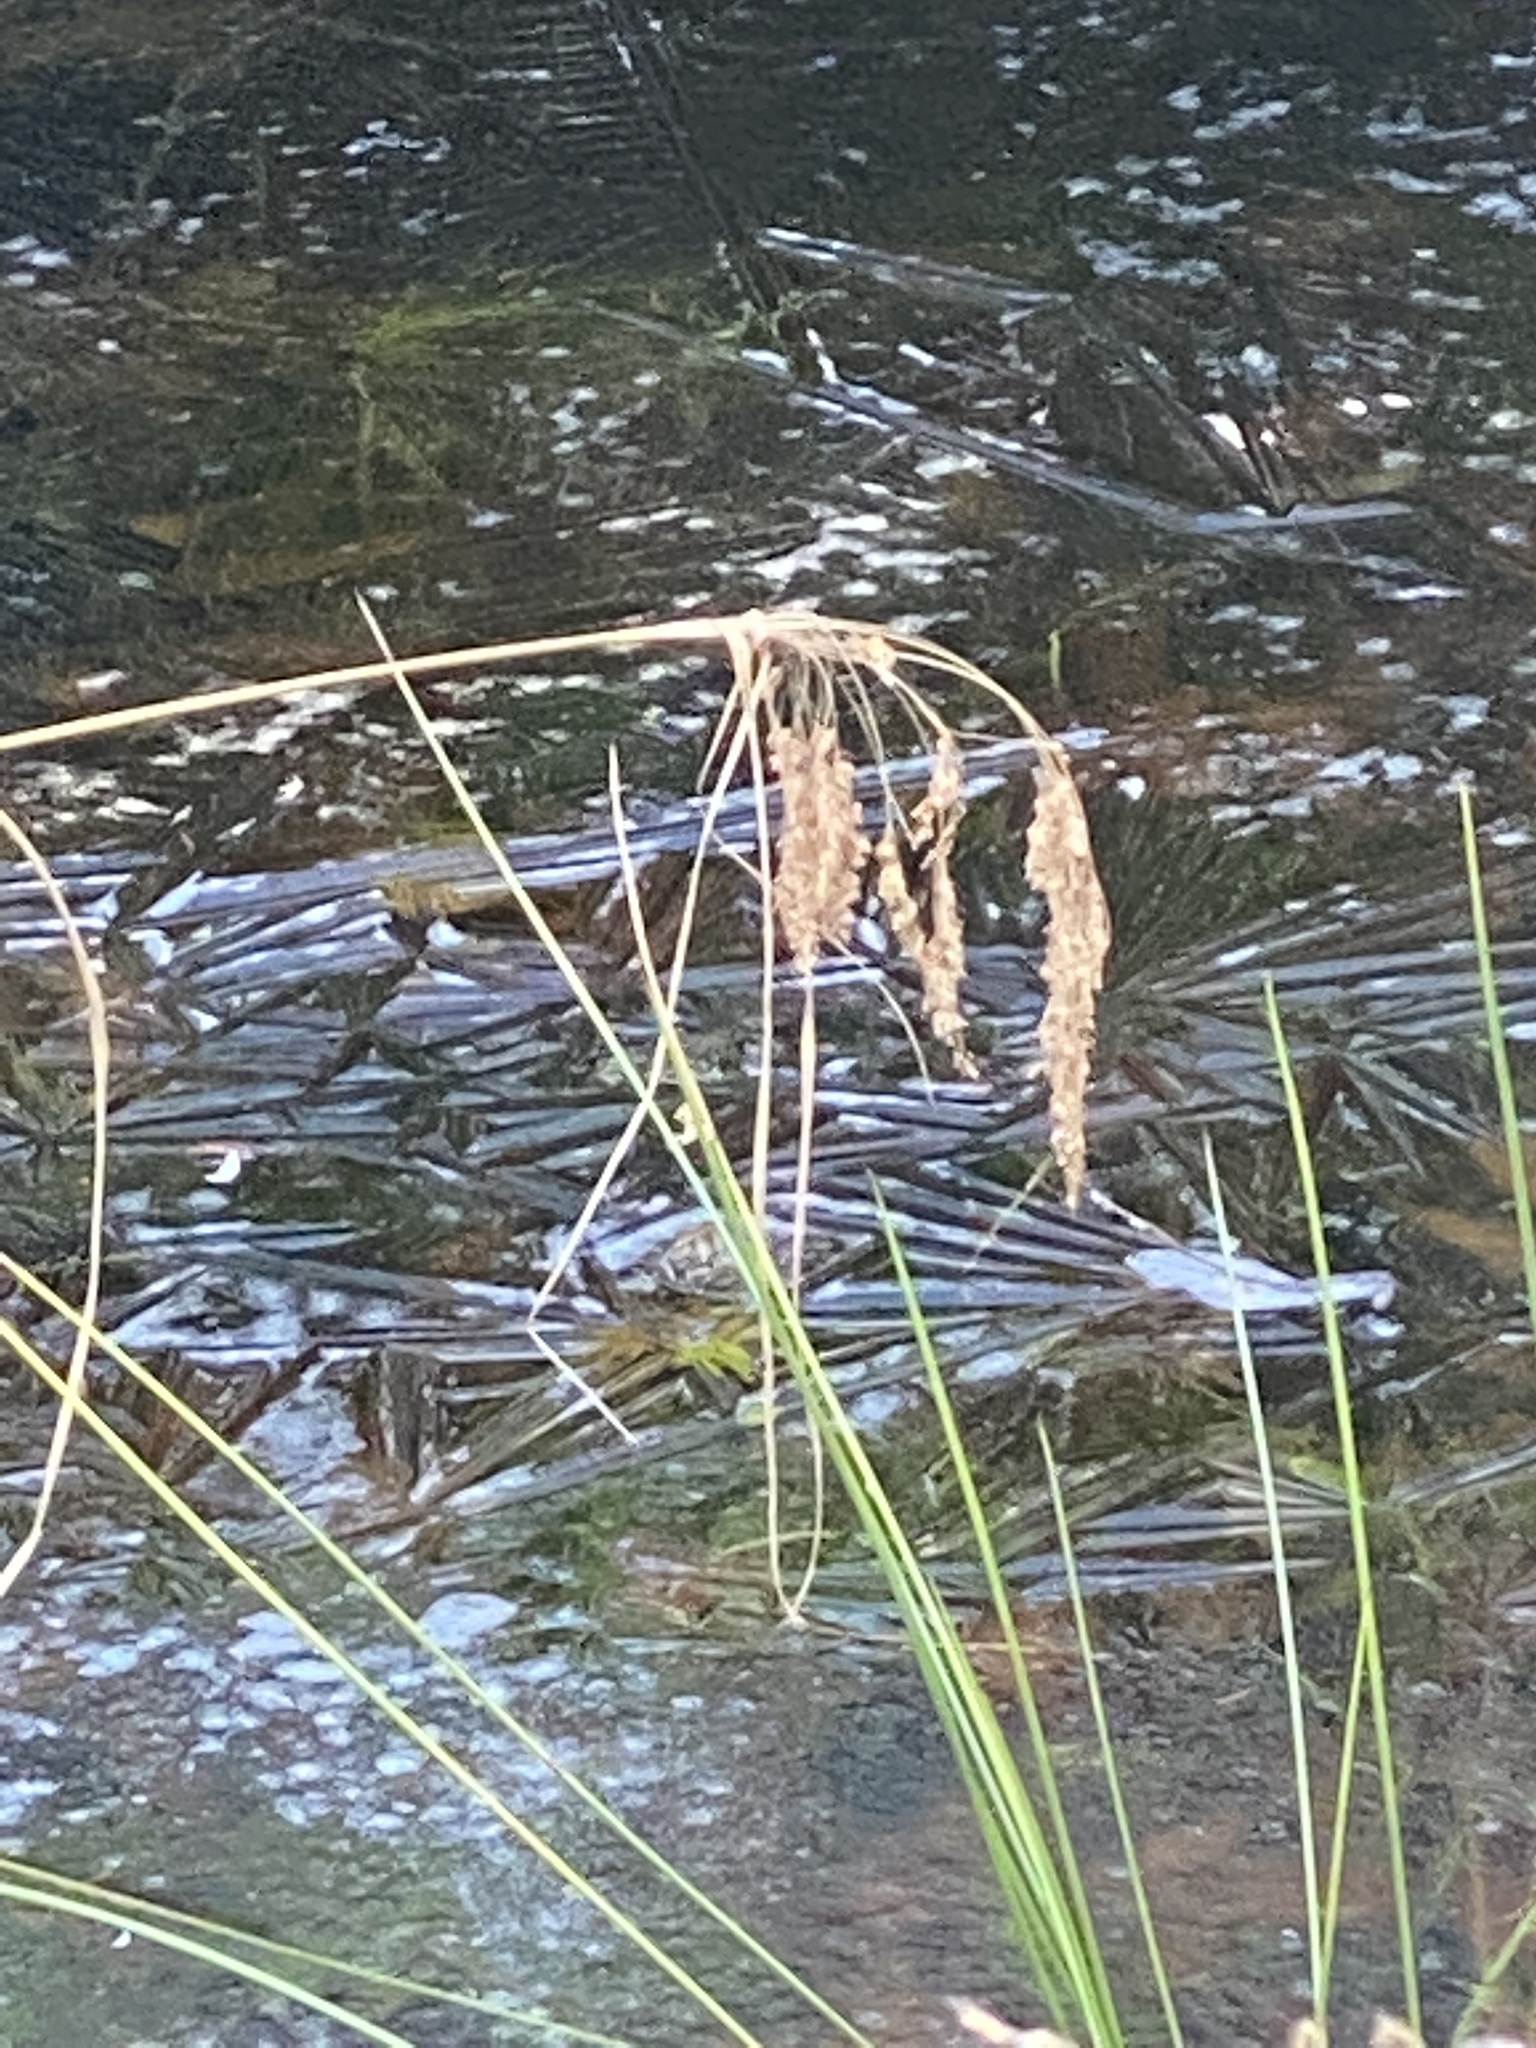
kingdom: Plantae
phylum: Tracheophyta
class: Liliopsida
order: Poales
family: Cyperaceae
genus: Scirpus
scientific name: Scirpus cyperinus
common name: Black-sheathed bulrush
